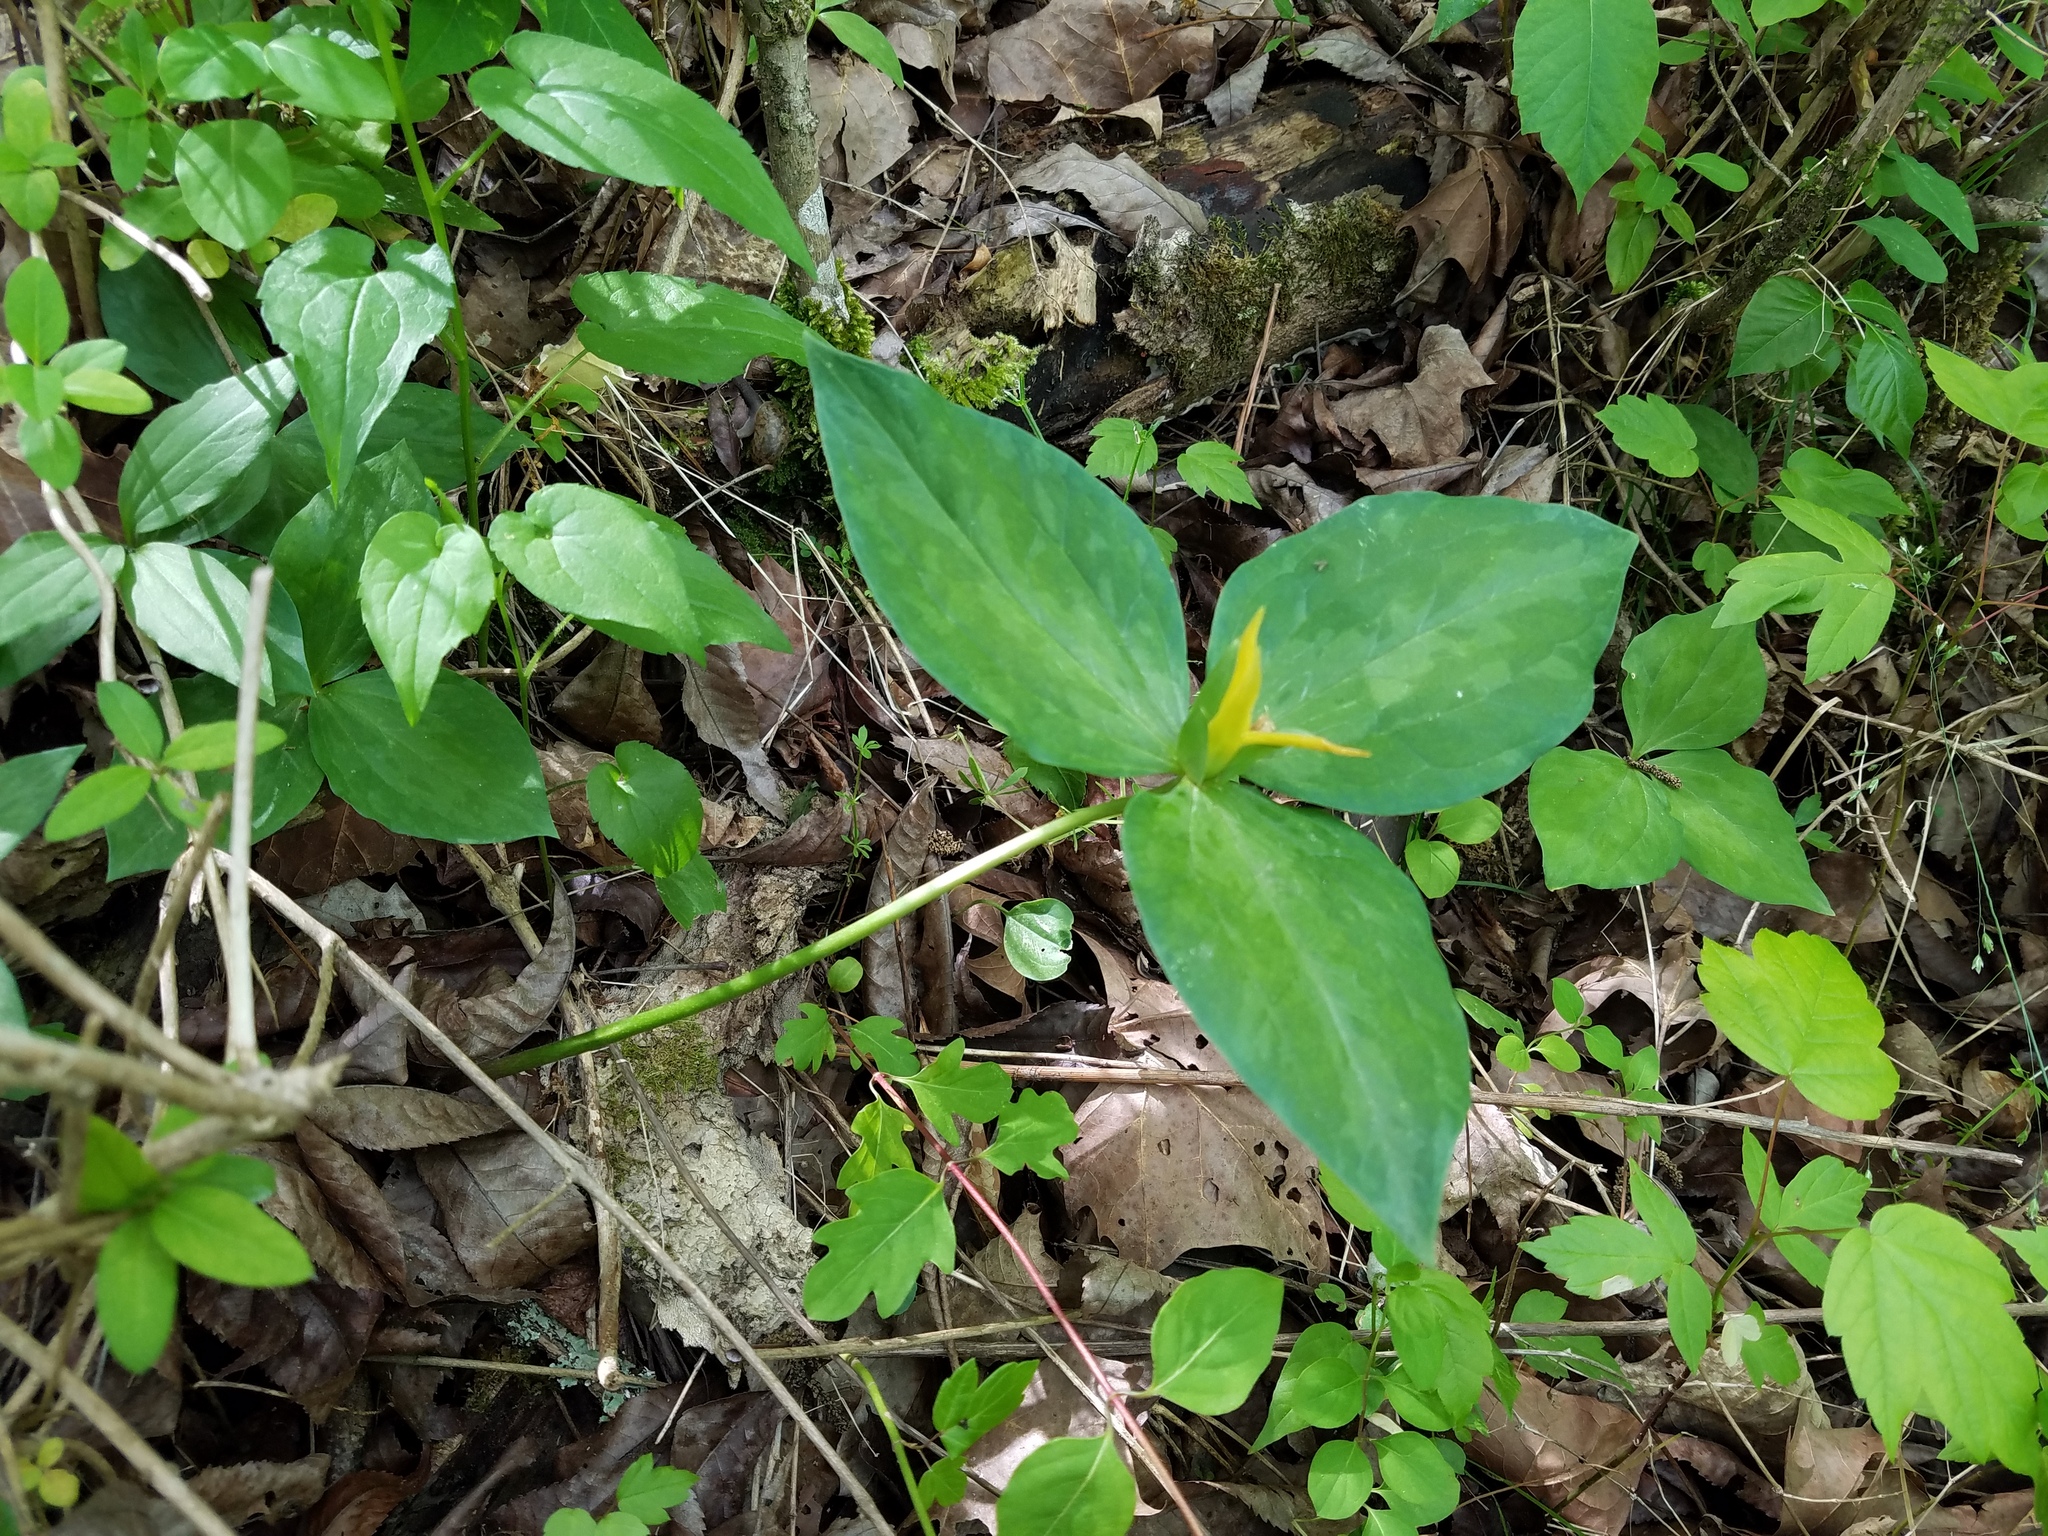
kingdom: Plantae
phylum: Tracheophyta
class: Liliopsida
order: Liliales
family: Melanthiaceae
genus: Trillium
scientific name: Trillium luteum
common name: Wax trillium
